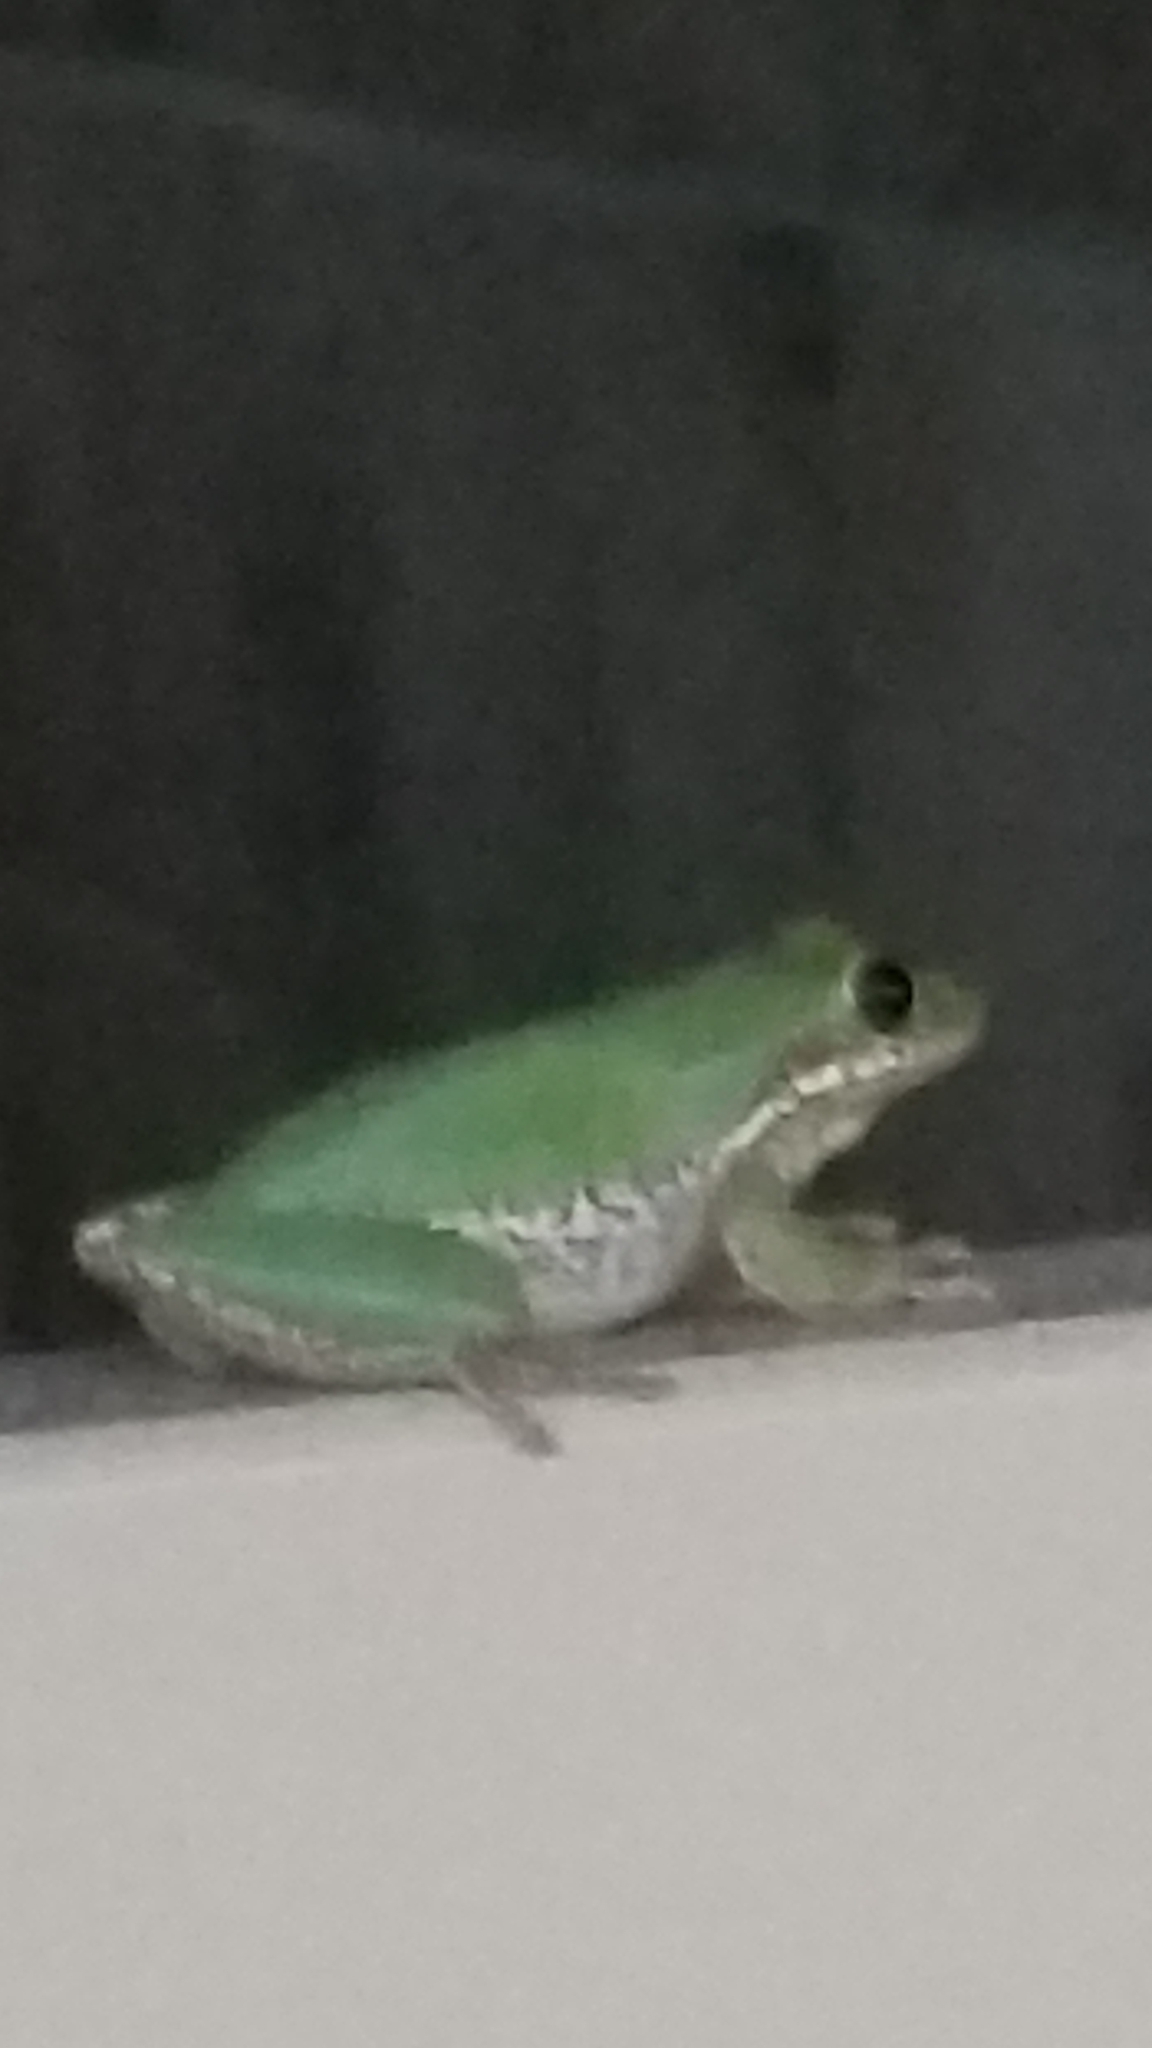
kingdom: Animalia
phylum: Chordata
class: Amphibia
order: Anura
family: Hylidae
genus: Dryophytes
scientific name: Dryophytes squirellus
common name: Squirrel treefrog
